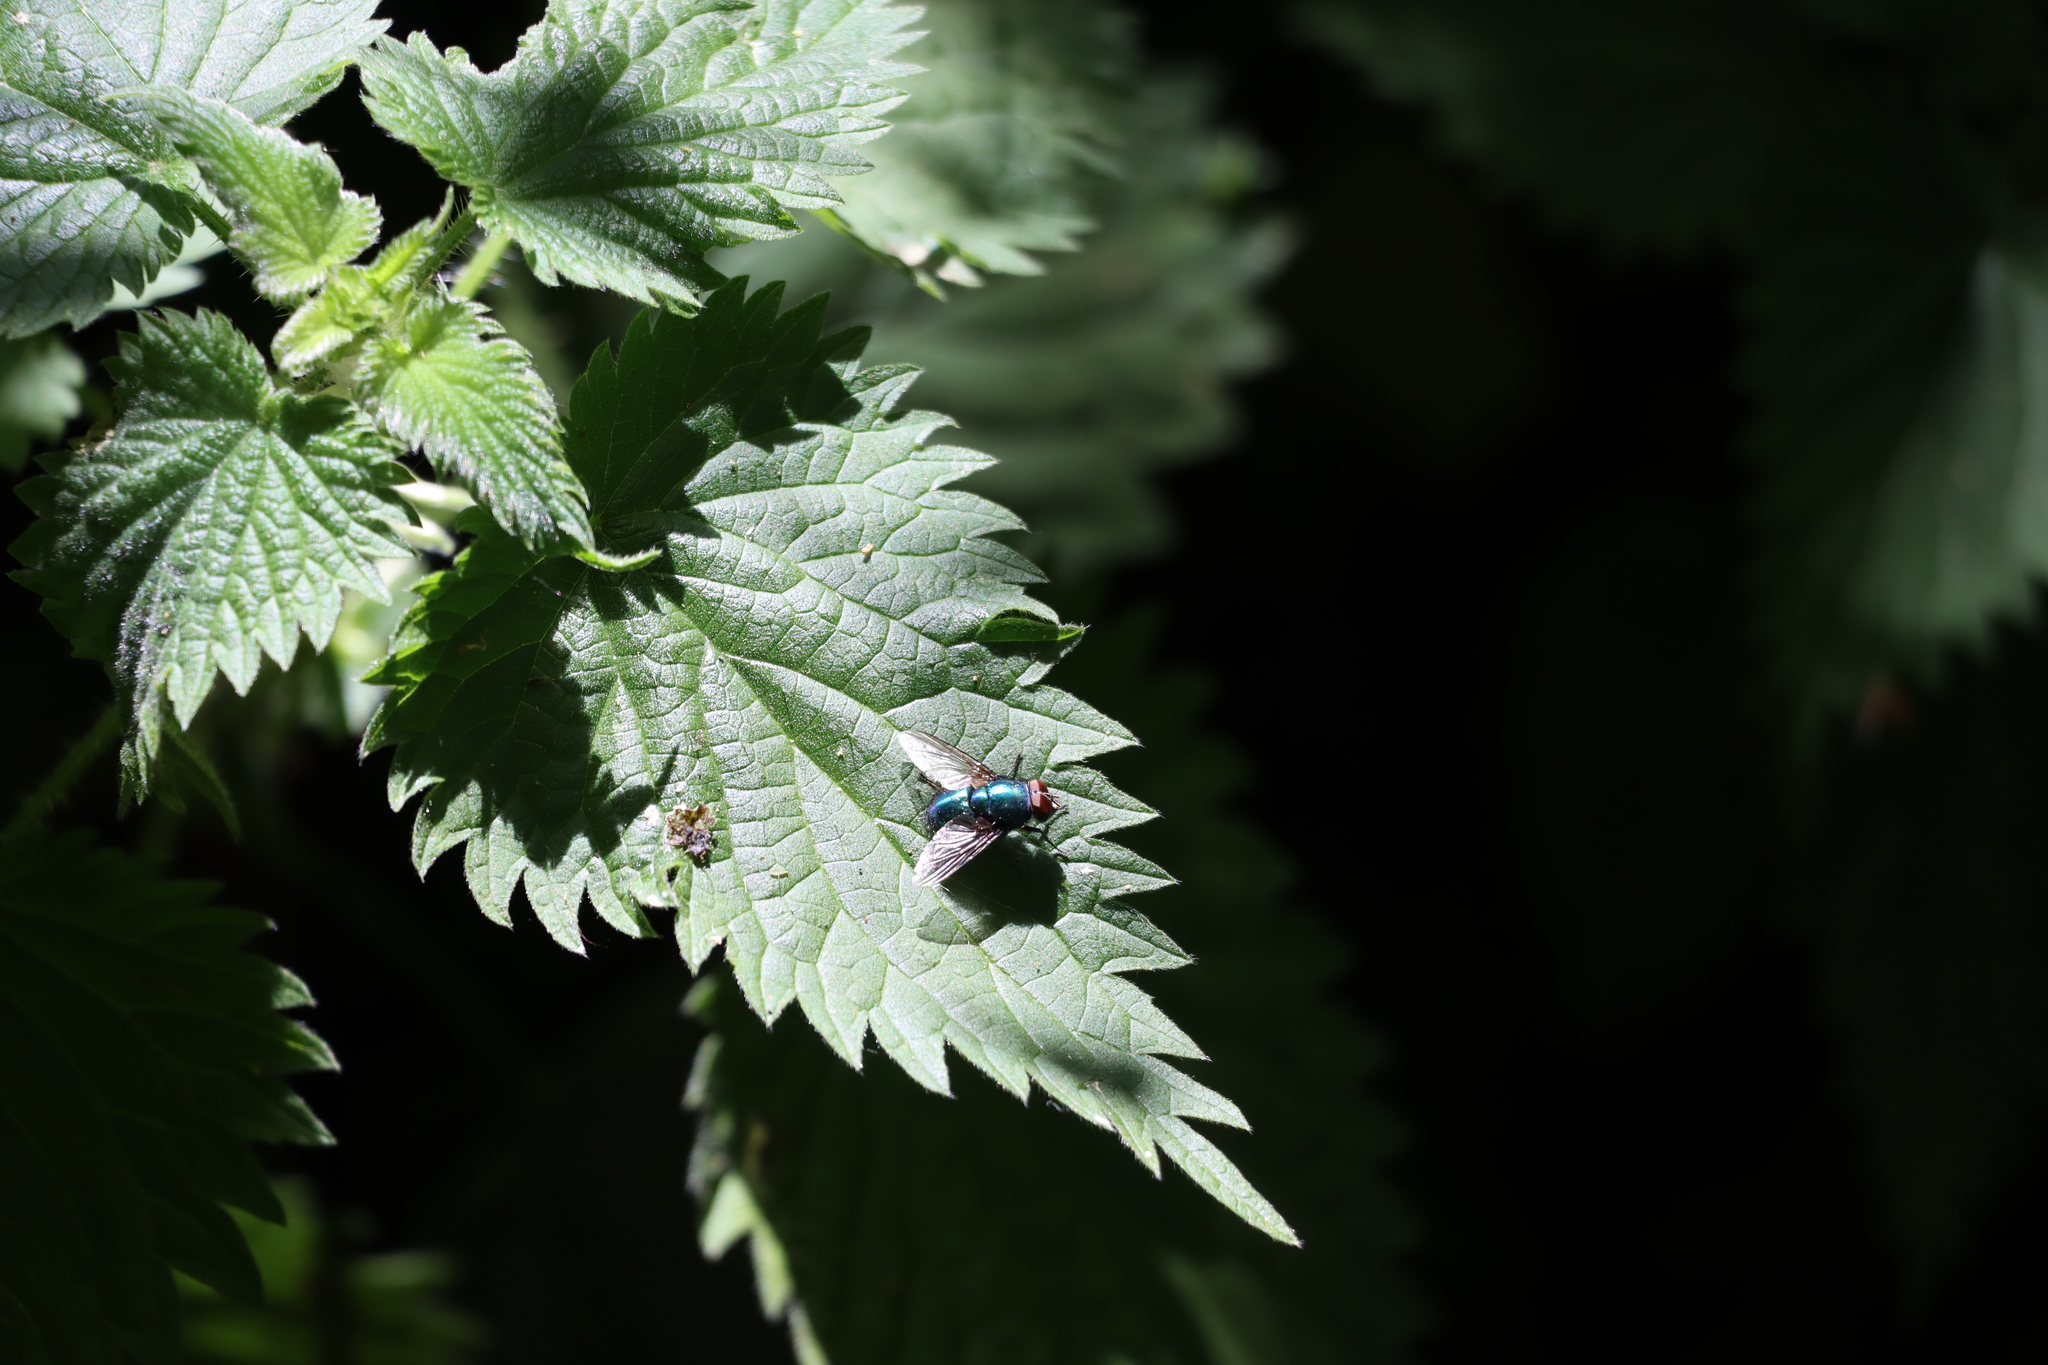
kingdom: Animalia
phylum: Arthropoda
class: Insecta
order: Diptera
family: Calliphoridae
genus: Lucilia
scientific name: Lucilia
